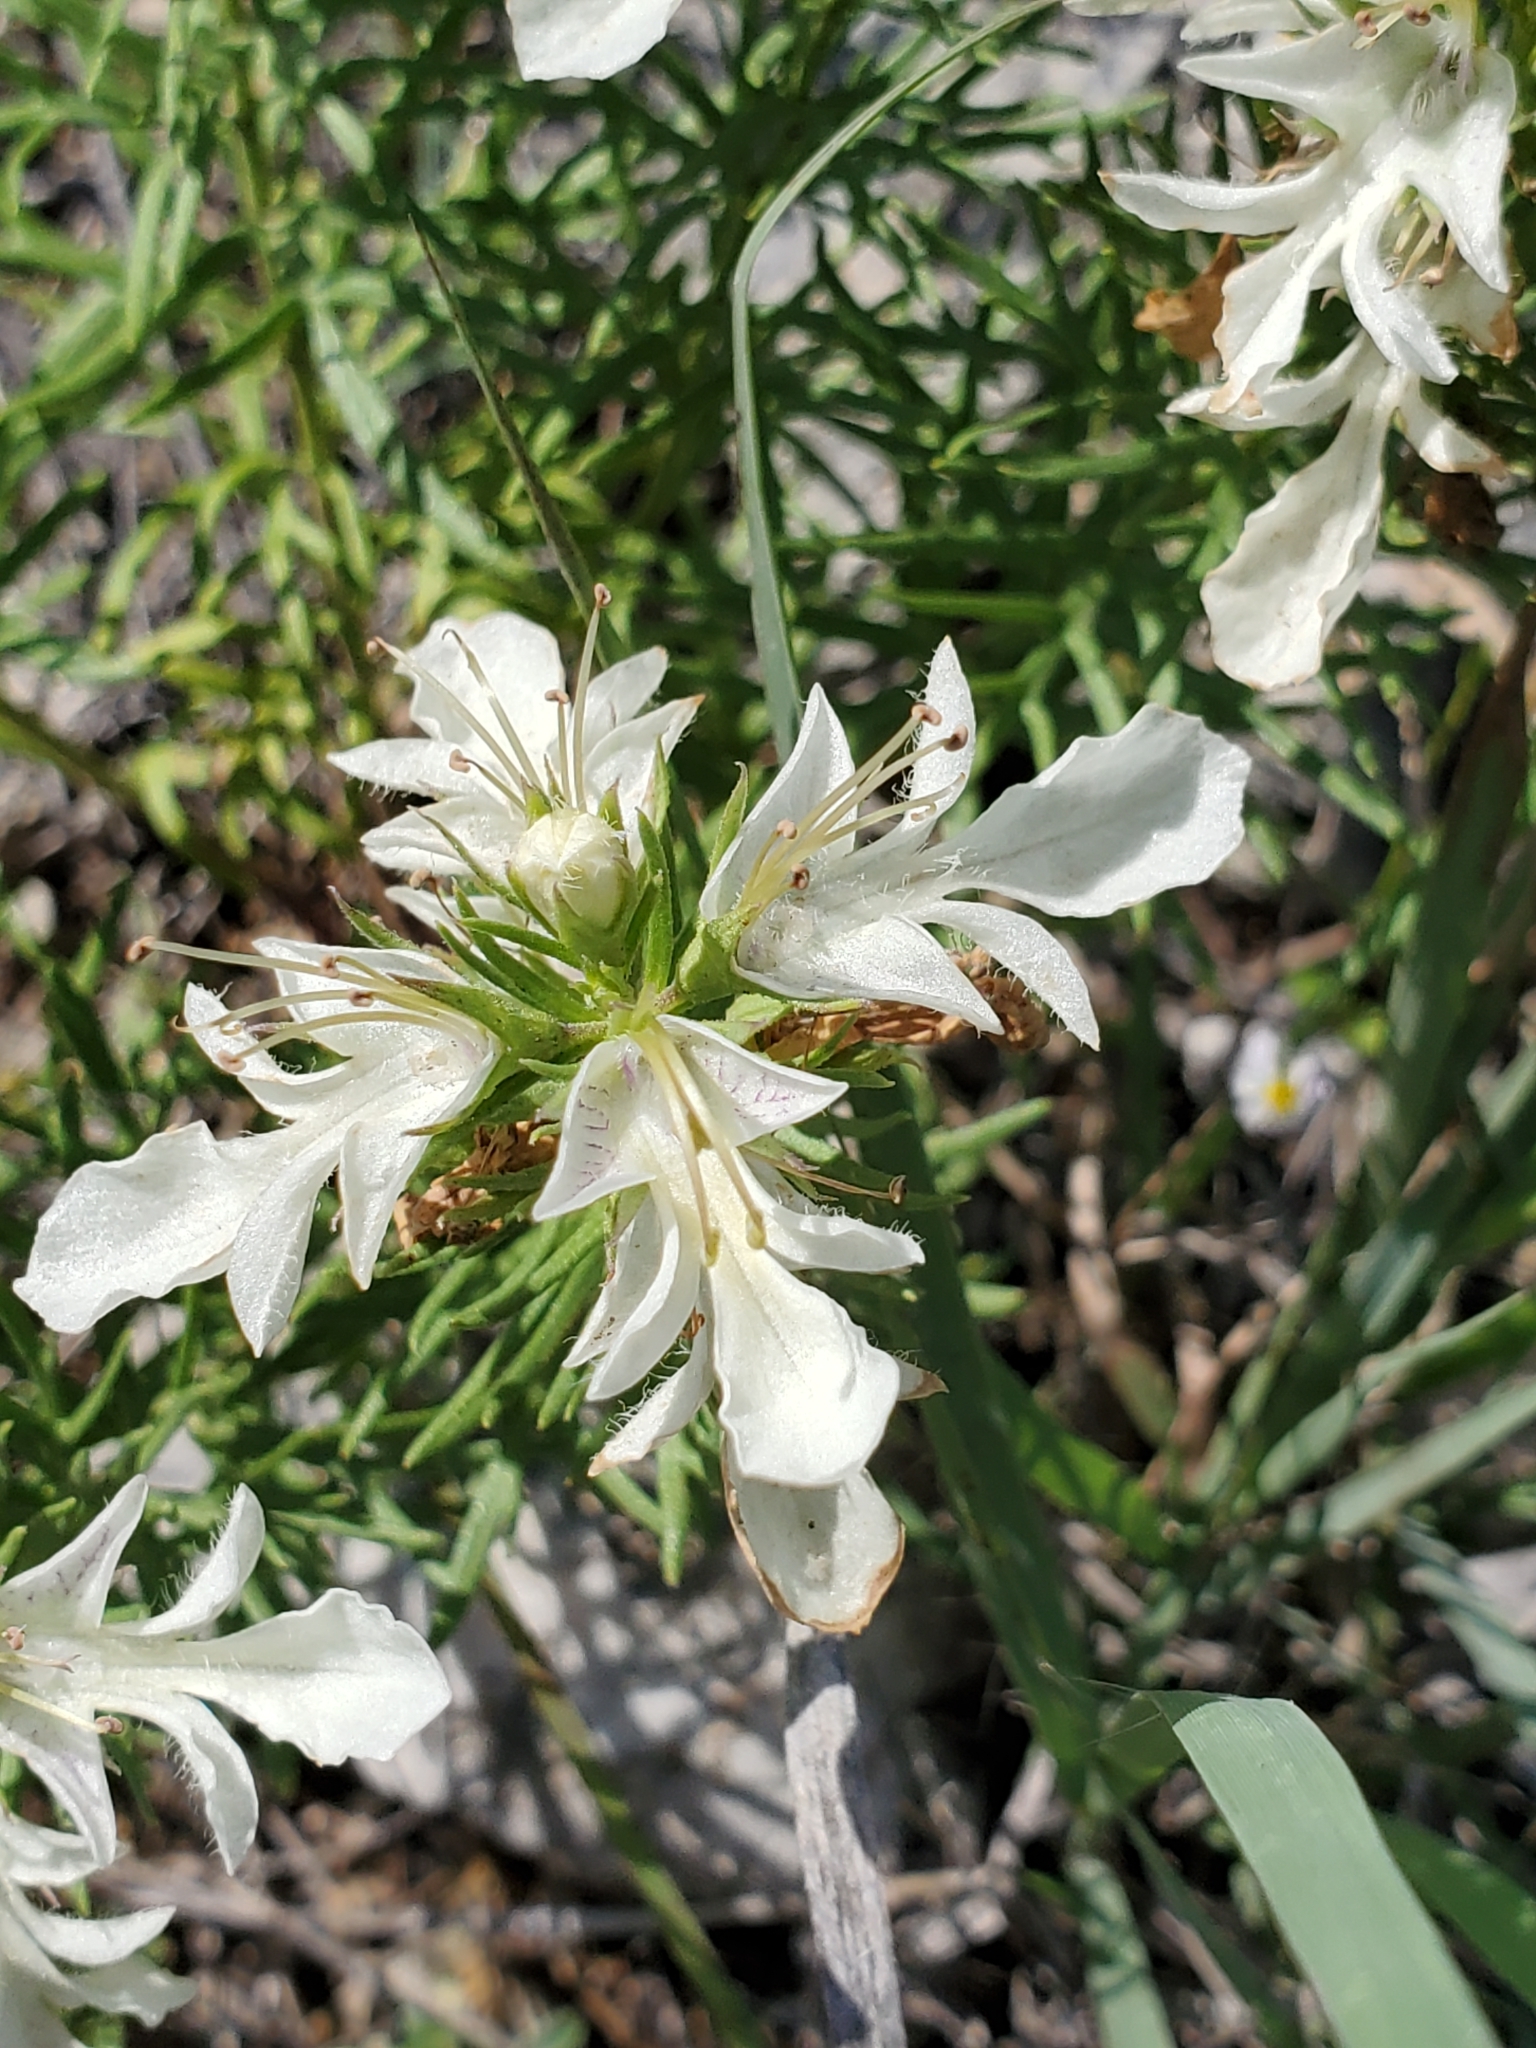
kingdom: Plantae
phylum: Tracheophyta
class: Magnoliopsida
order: Lamiales
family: Lamiaceae
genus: Teucrium
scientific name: Teucrium laciniatum
